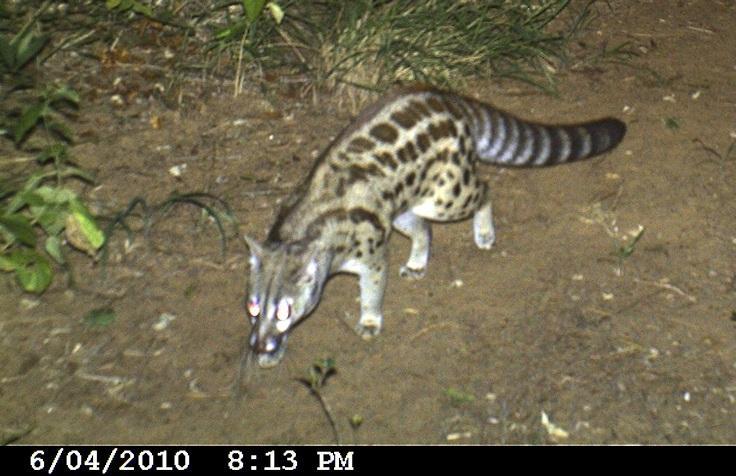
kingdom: Animalia
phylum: Chordata
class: Mammalia
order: Carnivora
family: Viverridae
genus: Genetta
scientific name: Genetta maculata
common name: Rusty-spotted genet
